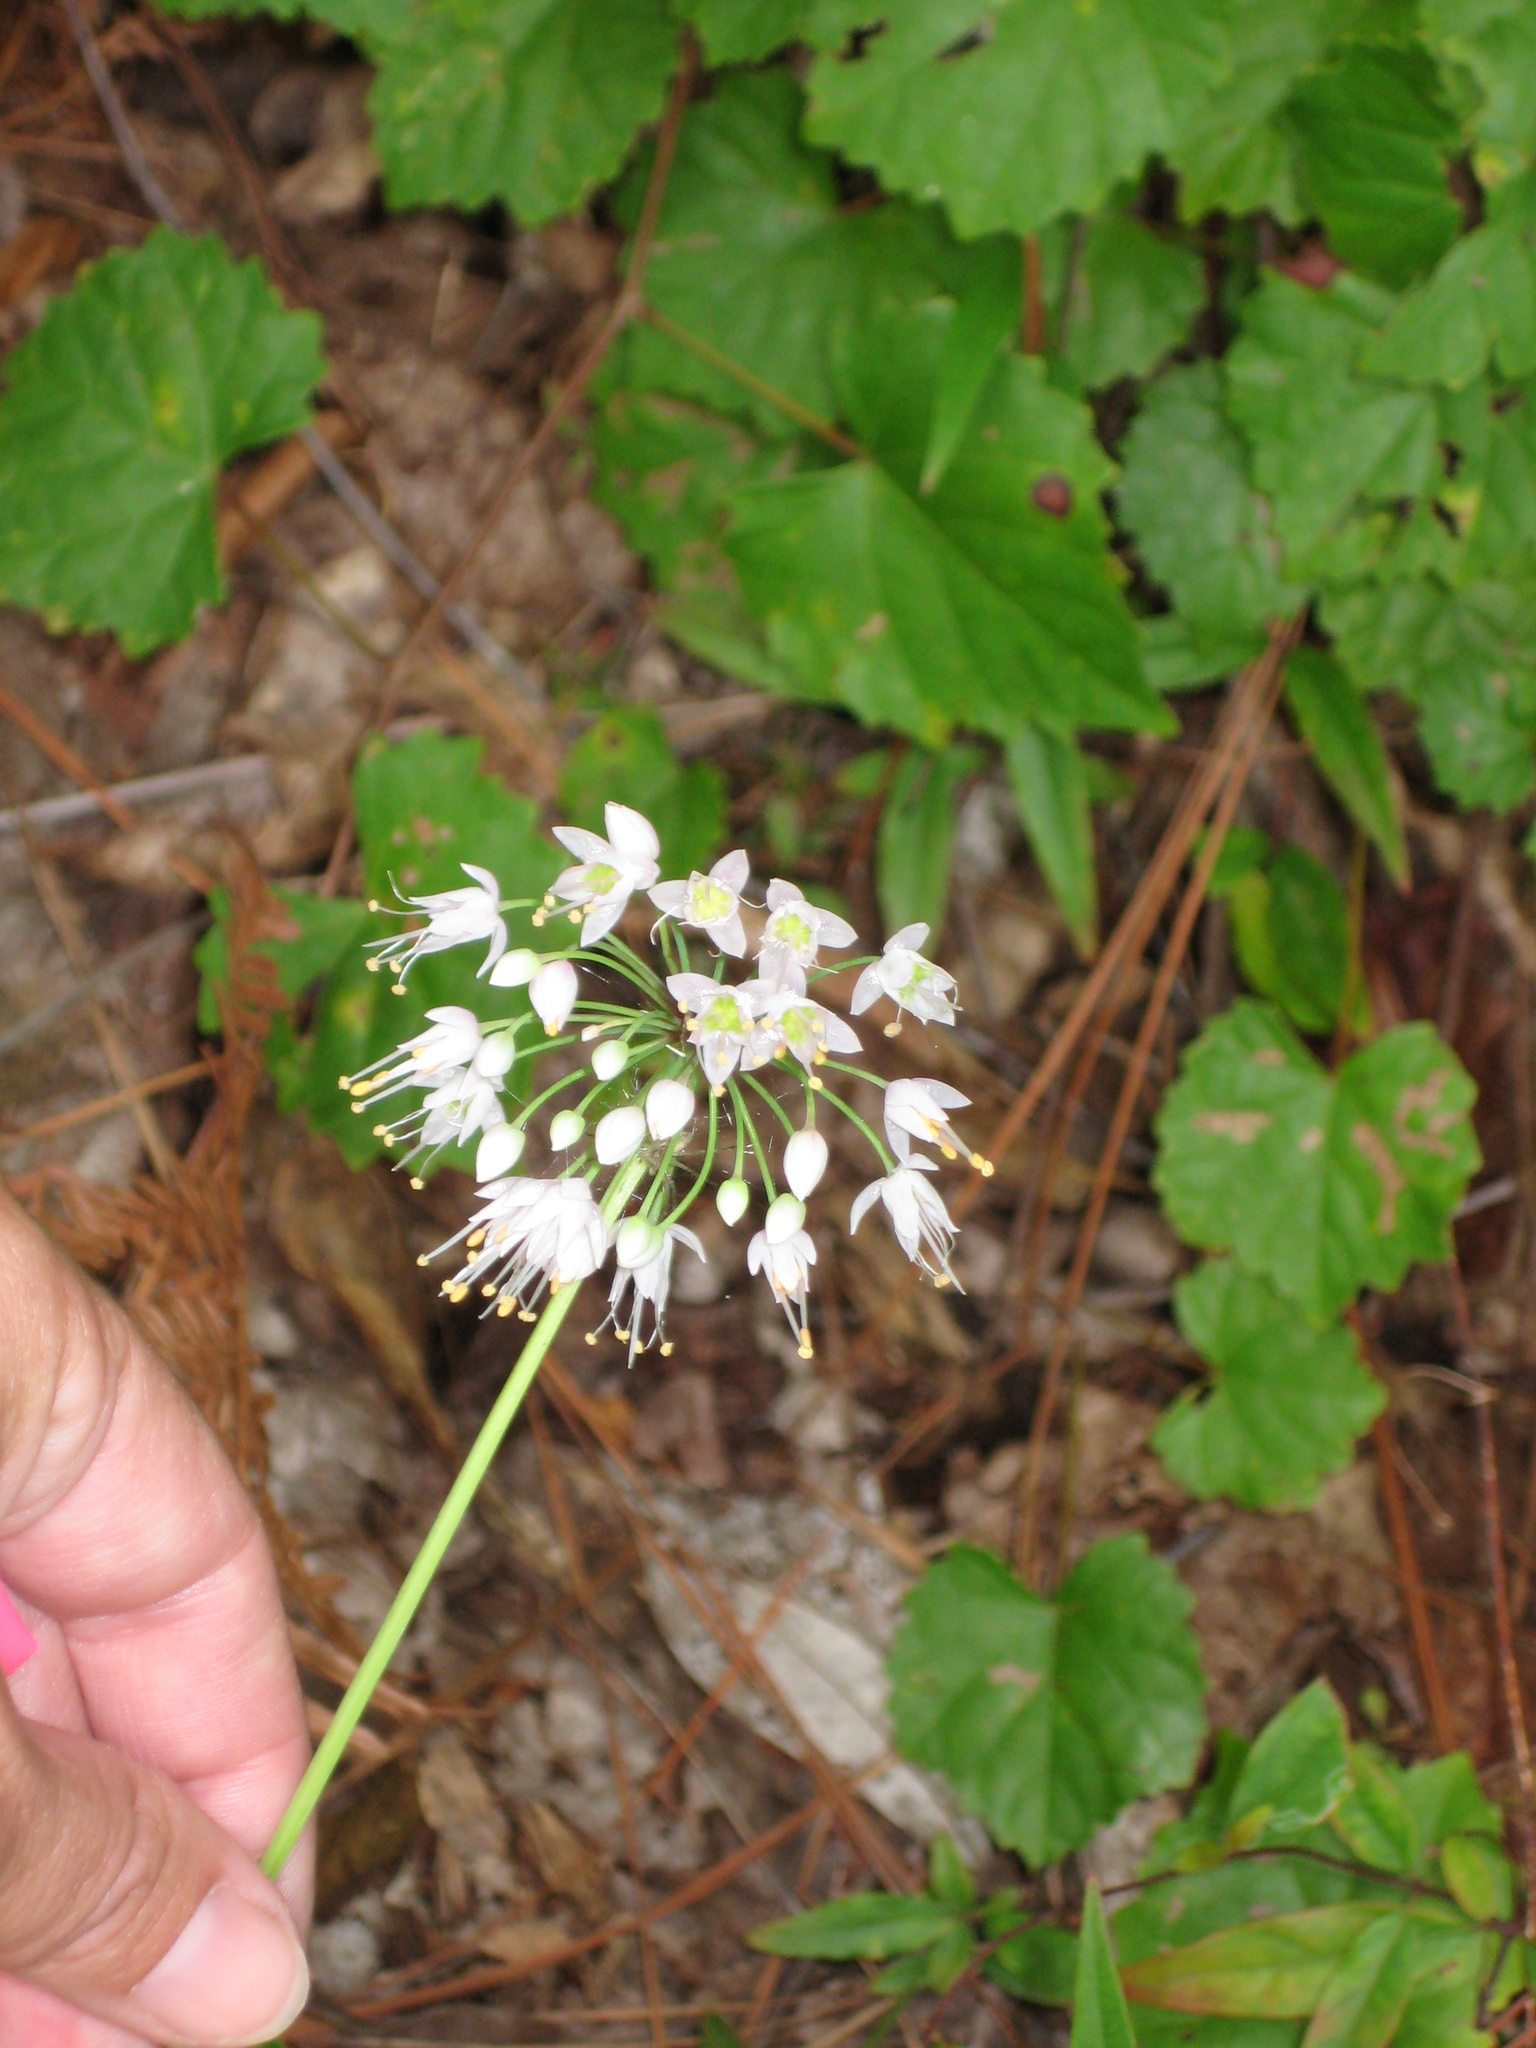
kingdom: Plantae
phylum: Tracheophyta
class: Liliopsida
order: Asparagales
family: Amaryllidaceae
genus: Allium
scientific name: Allium cernuum
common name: Nodding onion
